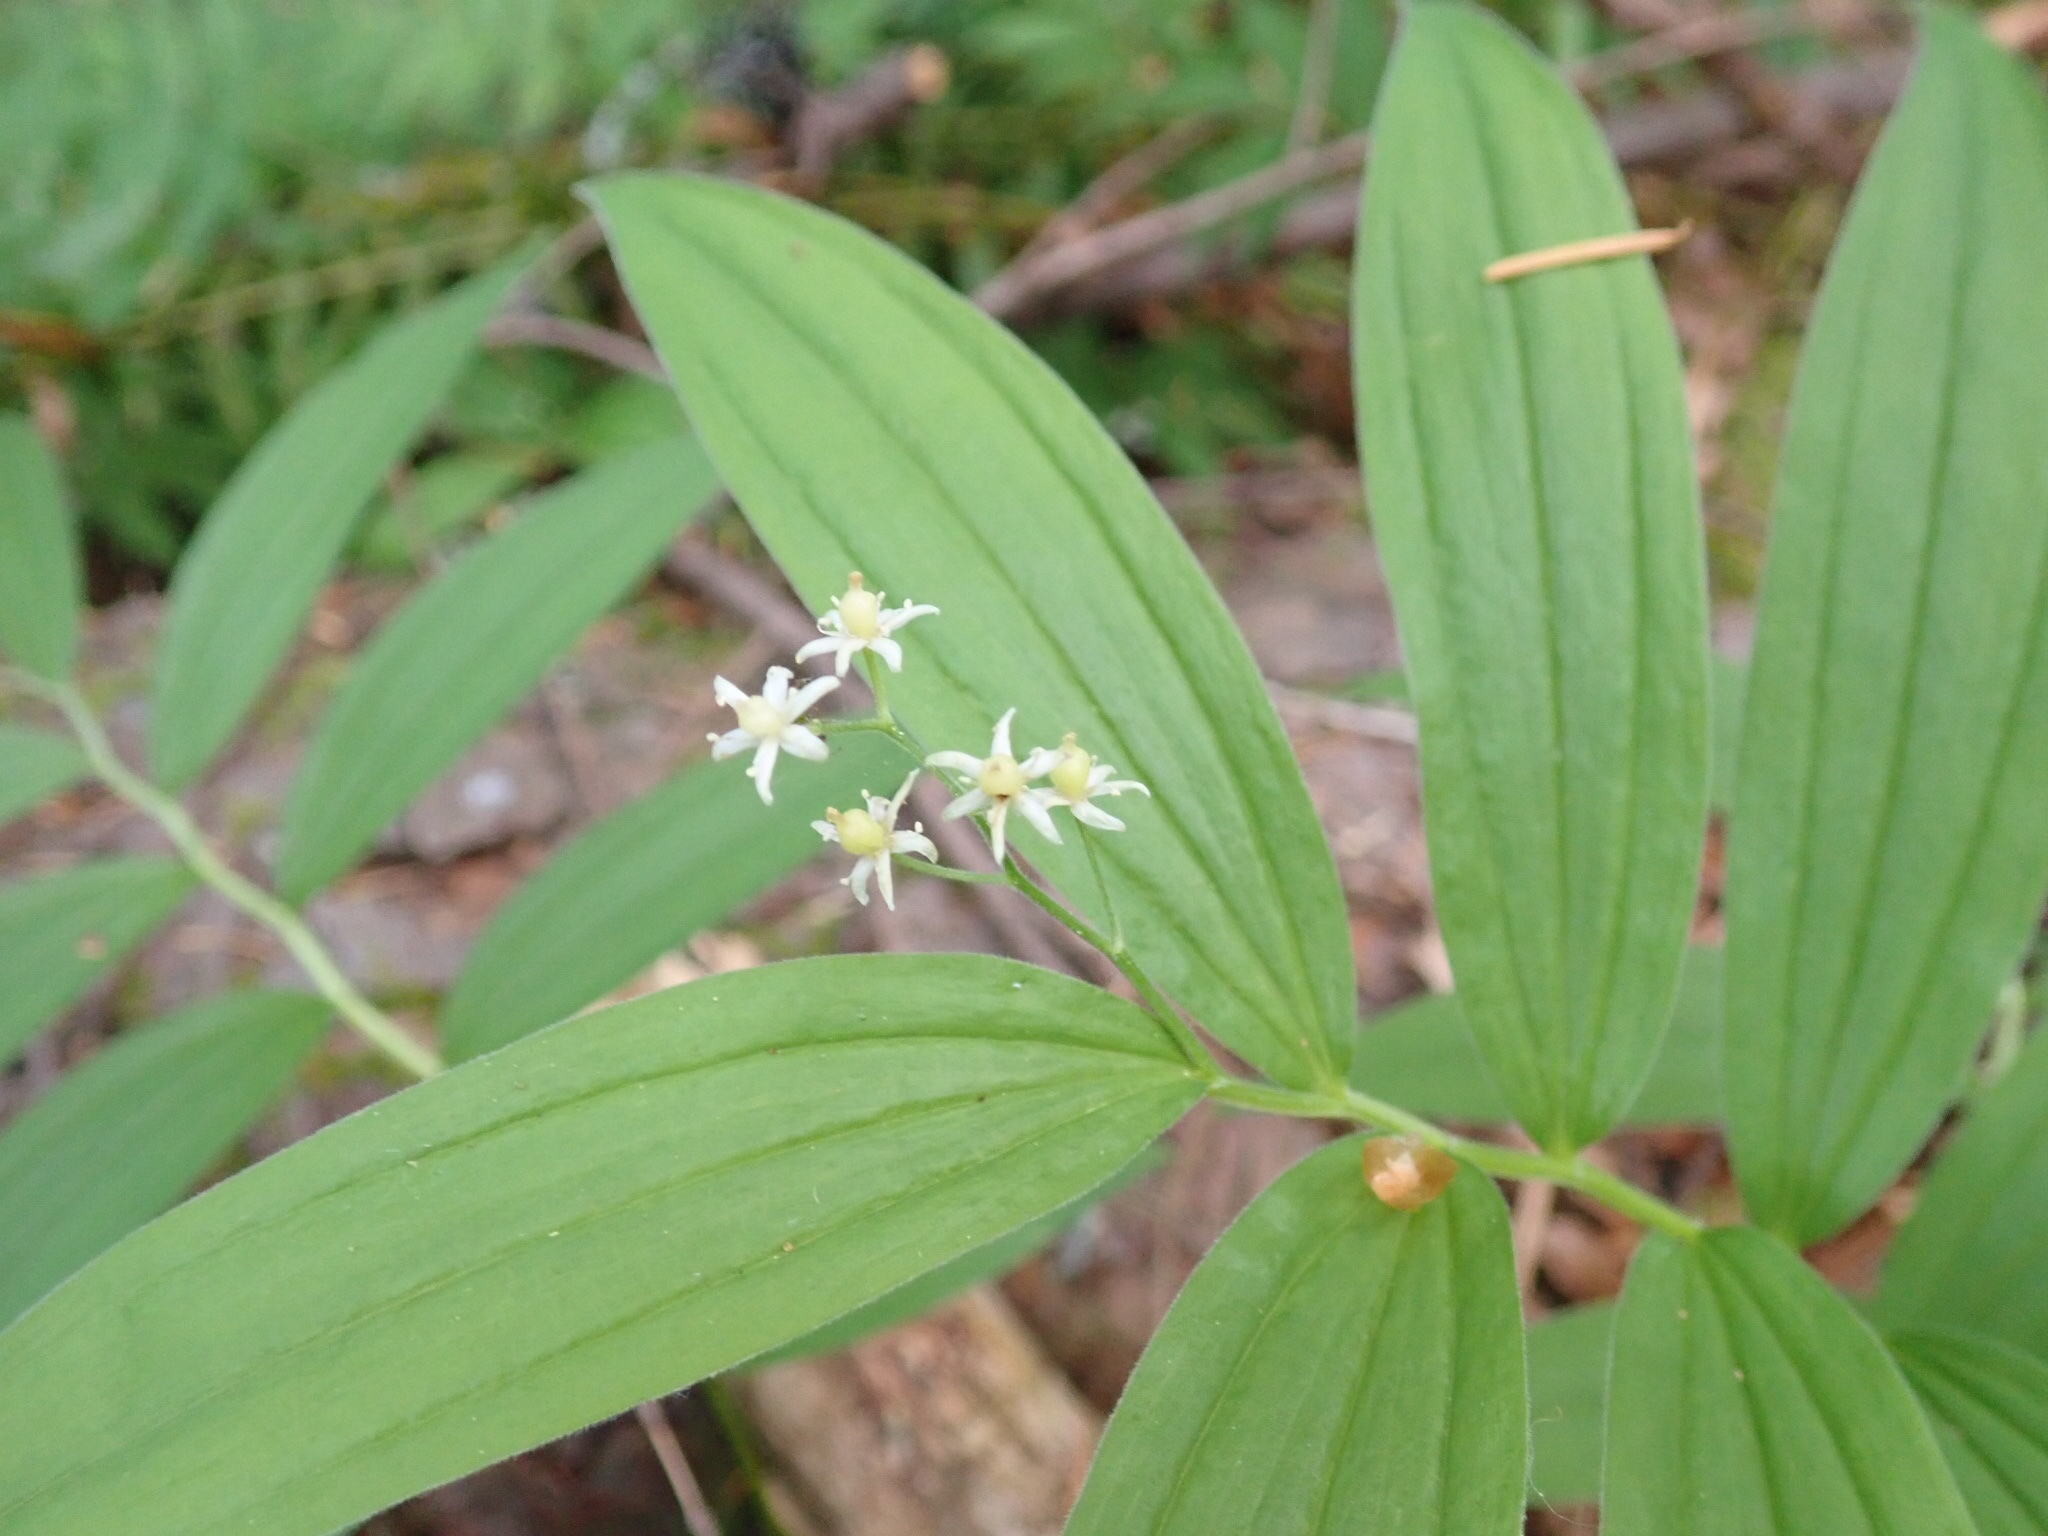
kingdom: Plantae
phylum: Tracheophyta
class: Liliopsida
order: Asparagales
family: Asparagaceae
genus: Maianthemum
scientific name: Maianthemum stellatum
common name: Little false solomon's seal
